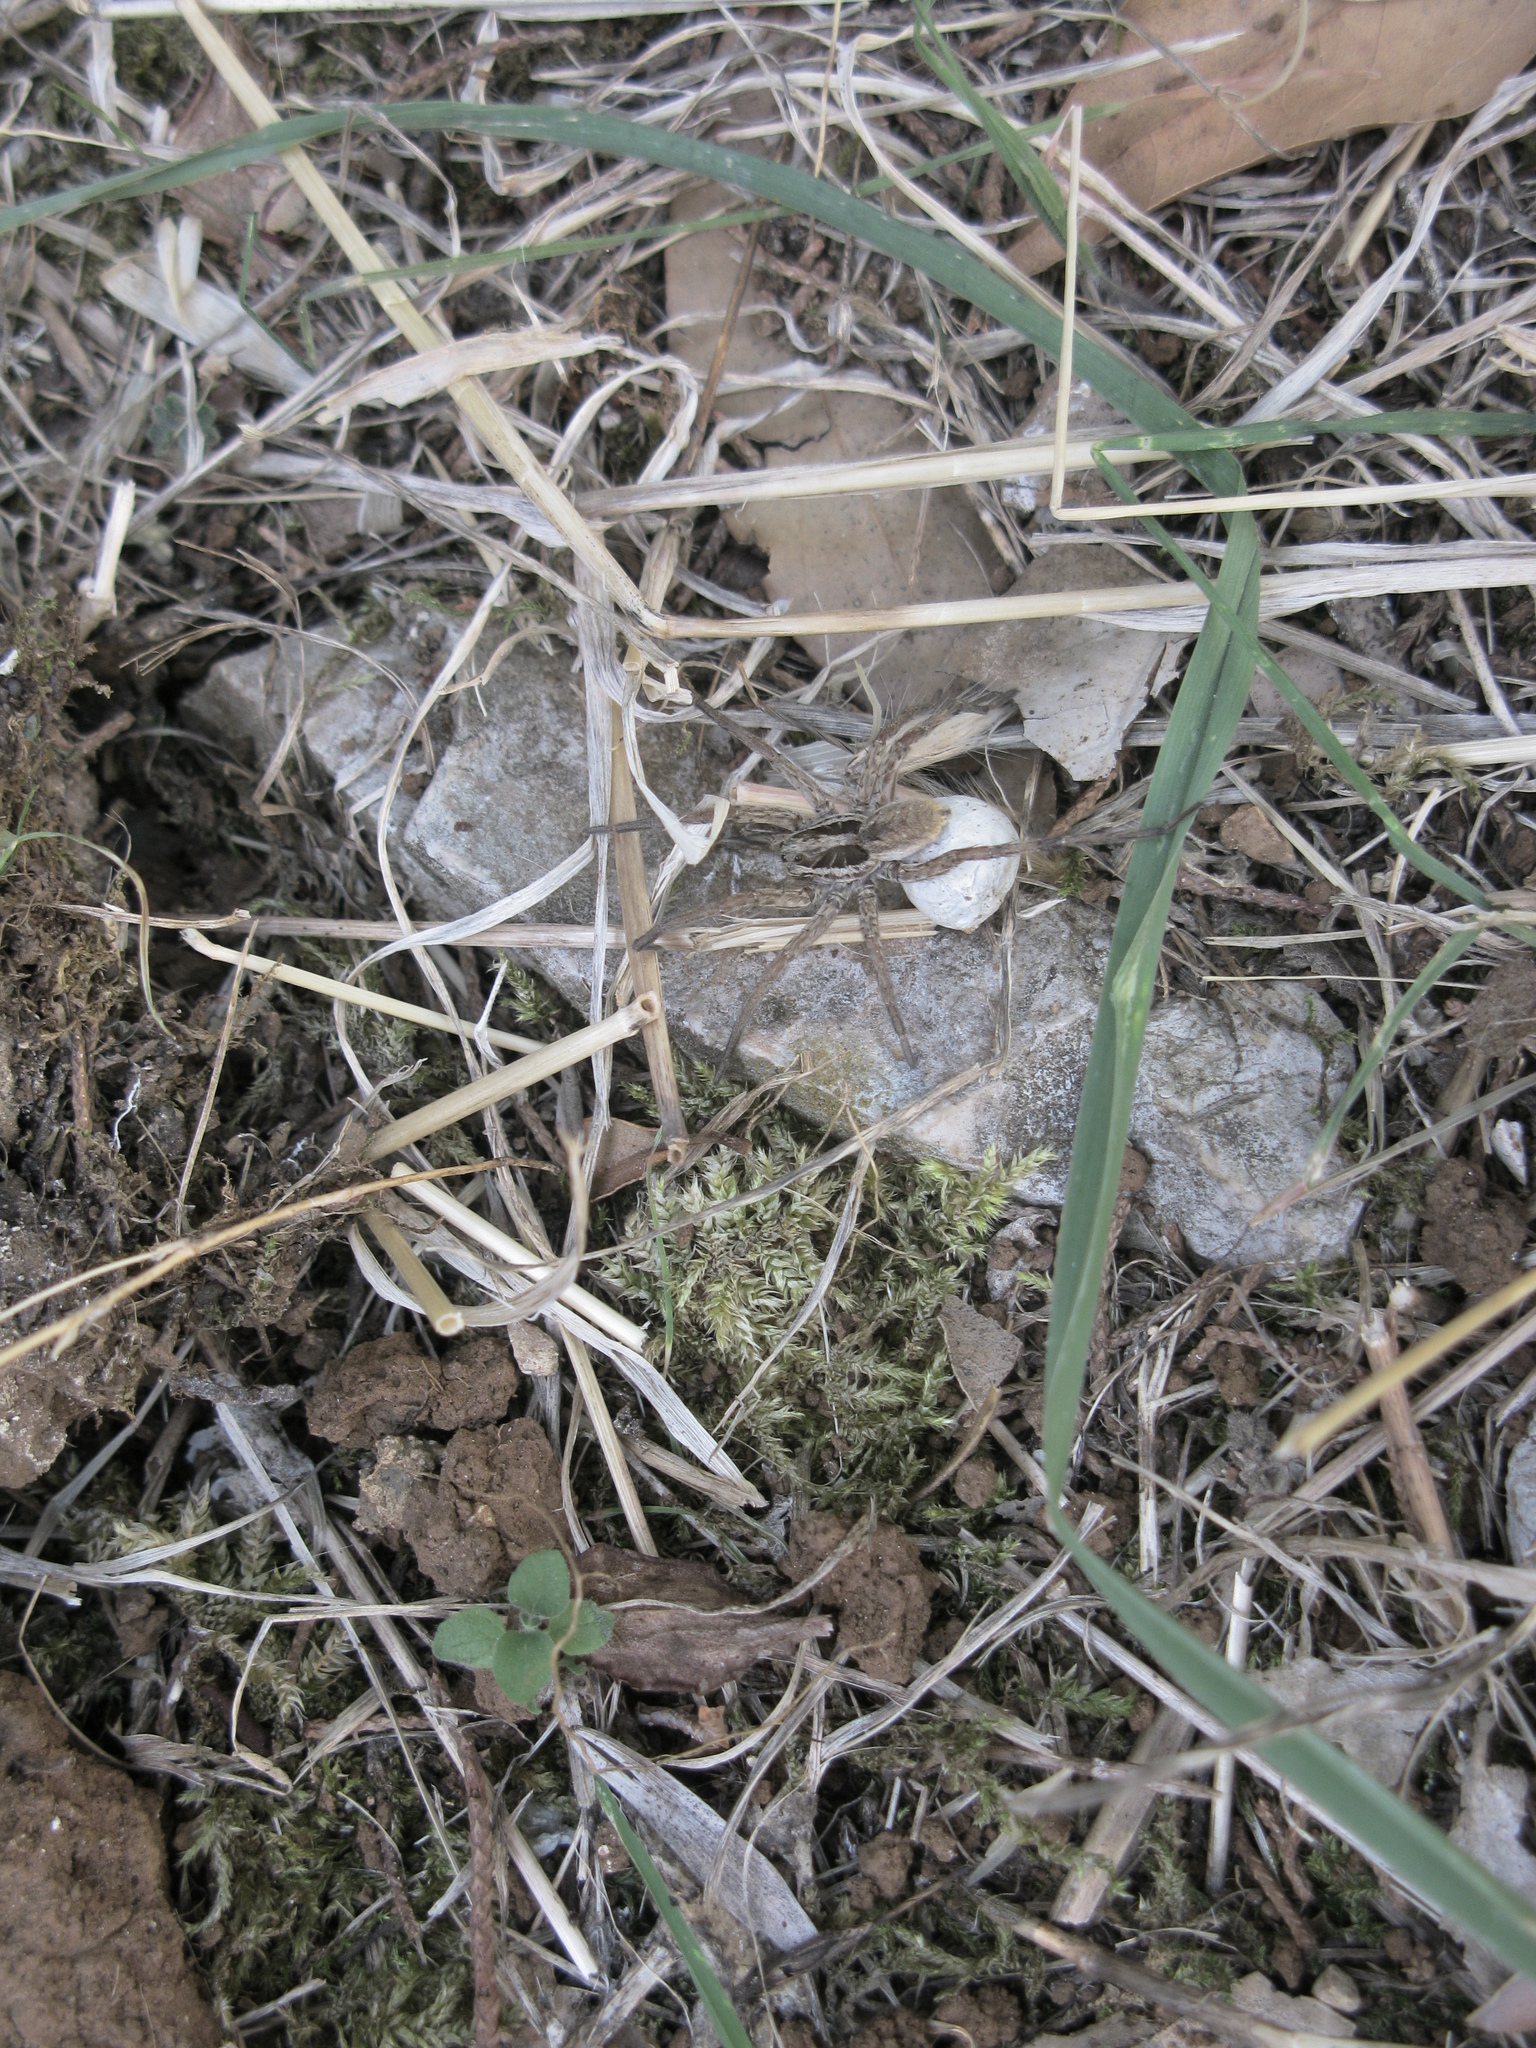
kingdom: Animalia
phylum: Arthropoda
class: Arachnida
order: Araneae
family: Lycosidae
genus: Hogna
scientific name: Hogna radiata
